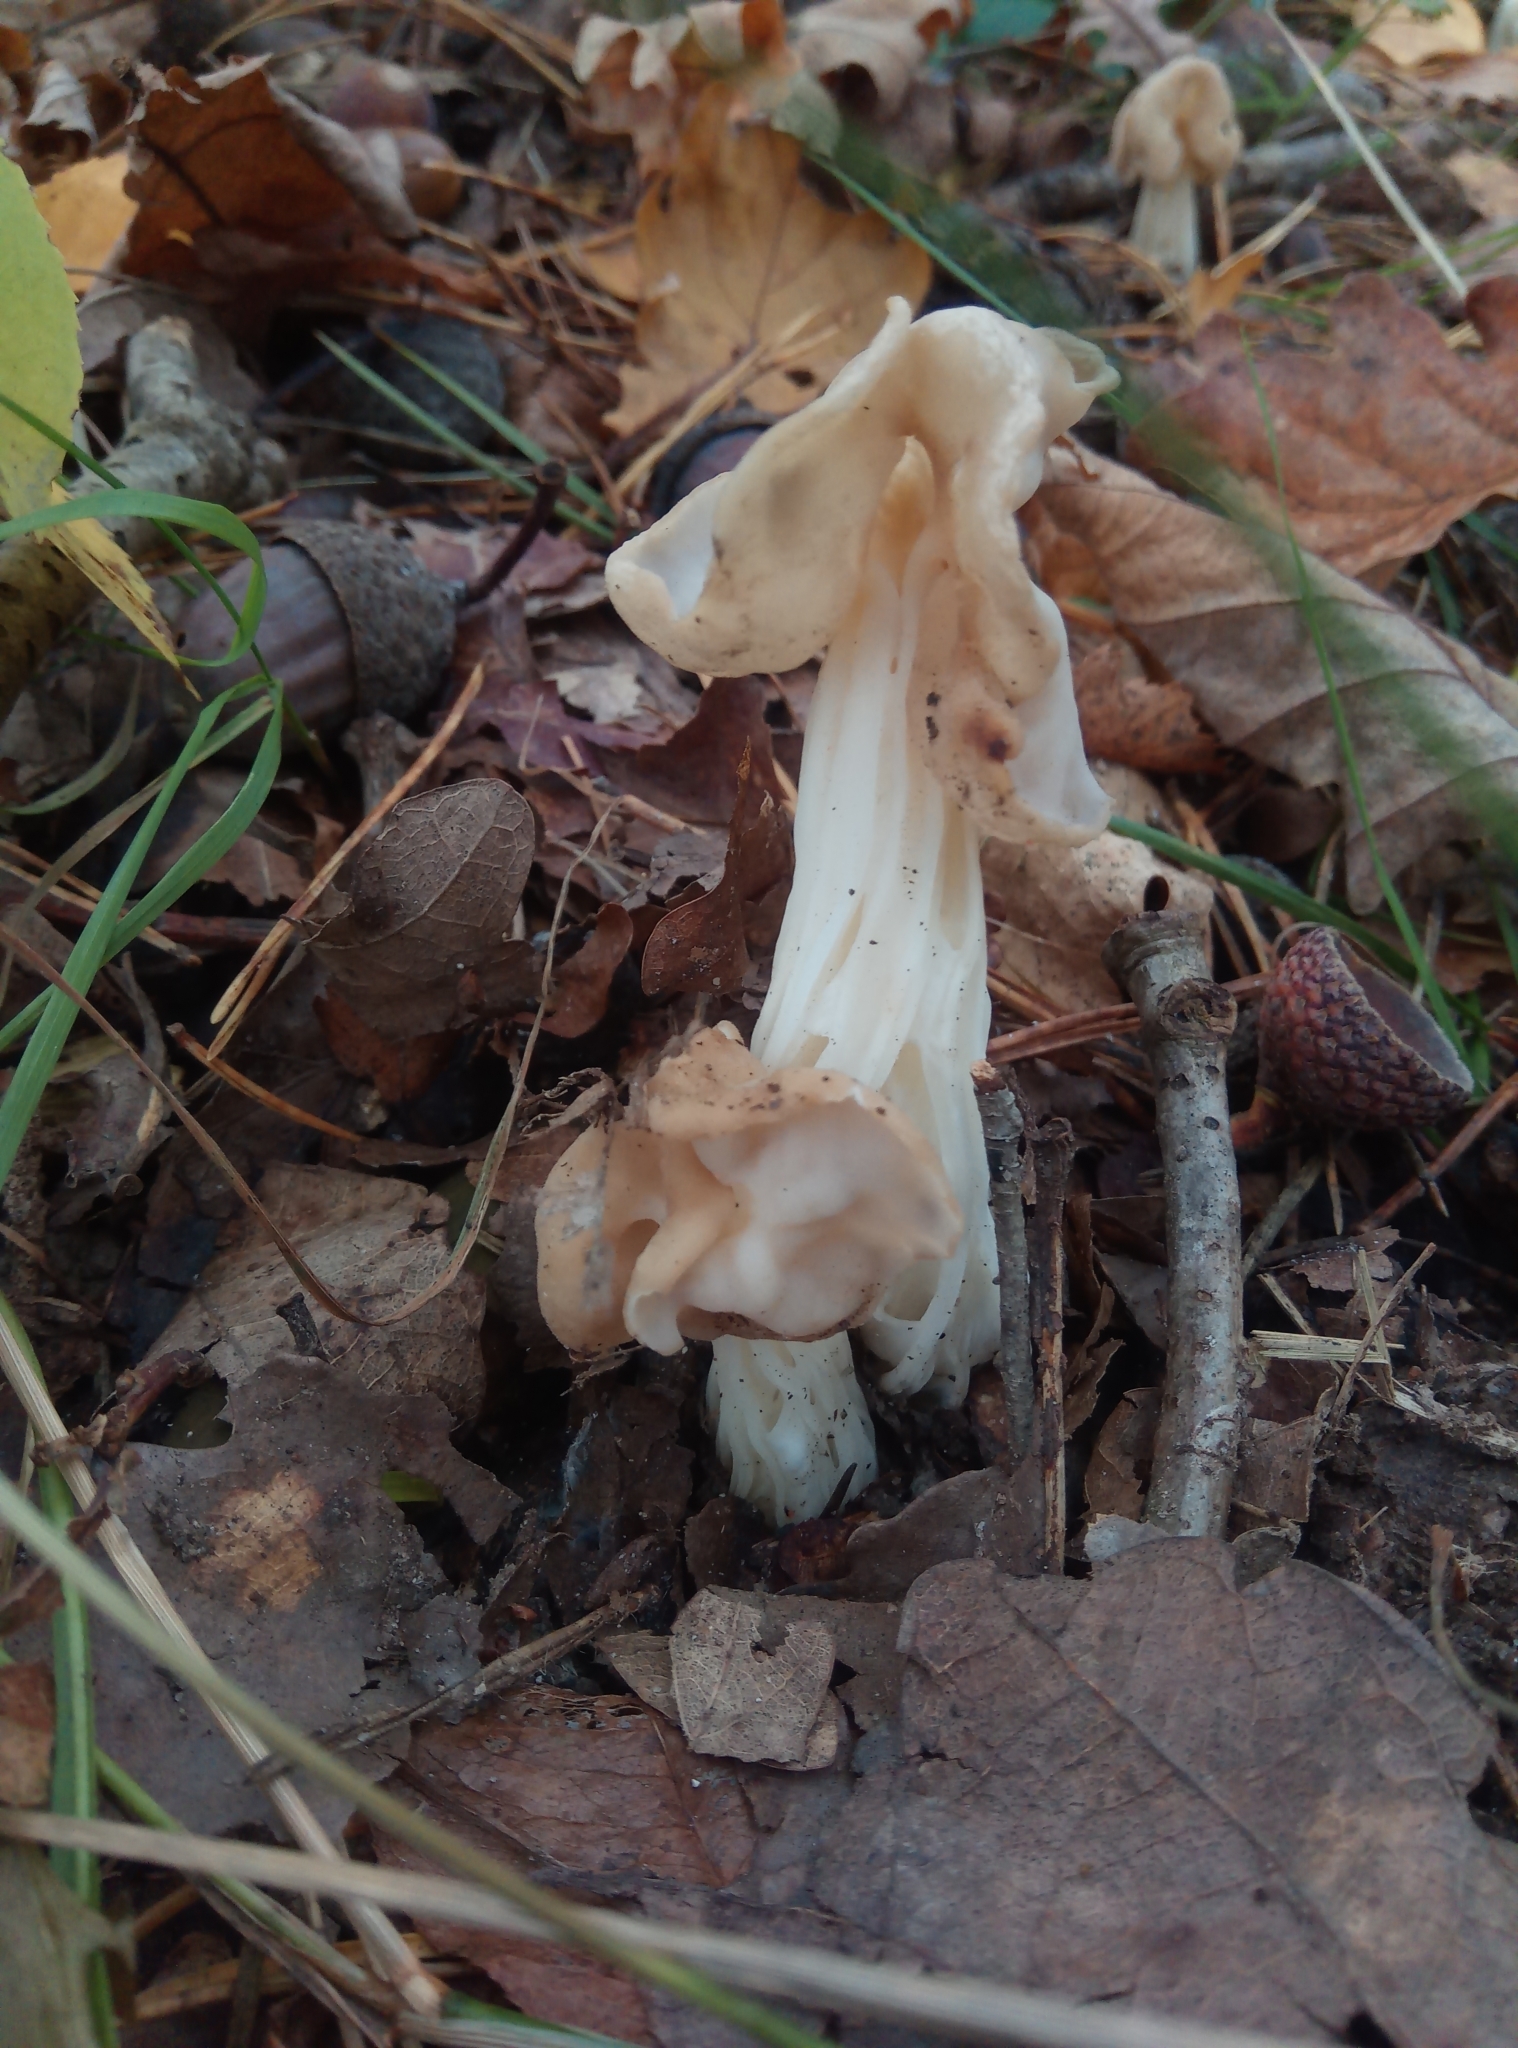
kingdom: Fungi
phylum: Ascomycota
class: Pezizomycetes
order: Pezizales
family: Helvellaceae
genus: Helvella
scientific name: Helvella crispa
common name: White saddle
